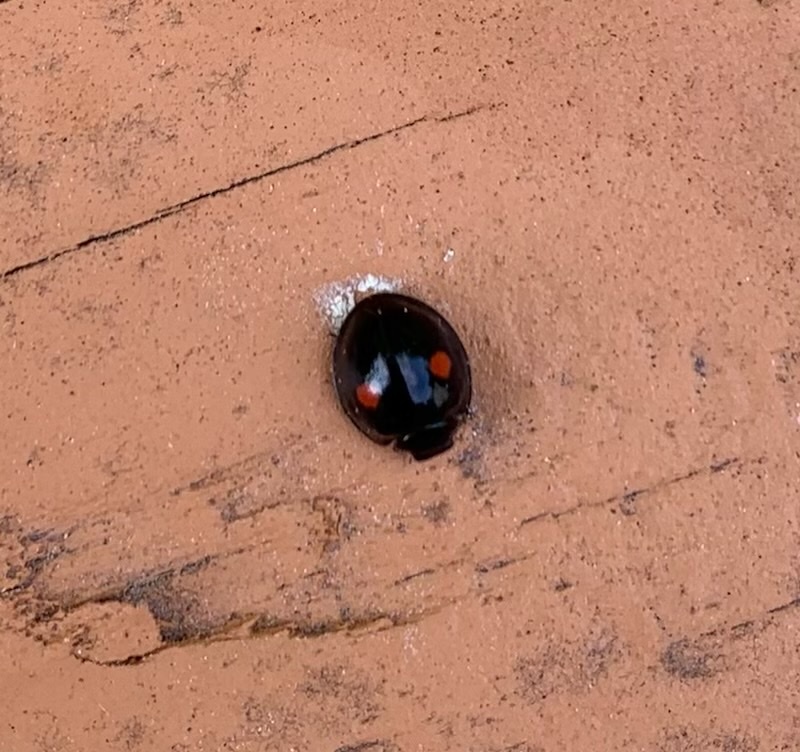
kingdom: Animalia
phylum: Arthropoda
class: Insecta
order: Coleoptera
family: Coccinellidae
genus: Chilocorus
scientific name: Chilocorus stigma
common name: Twicestabbed lady beetle
